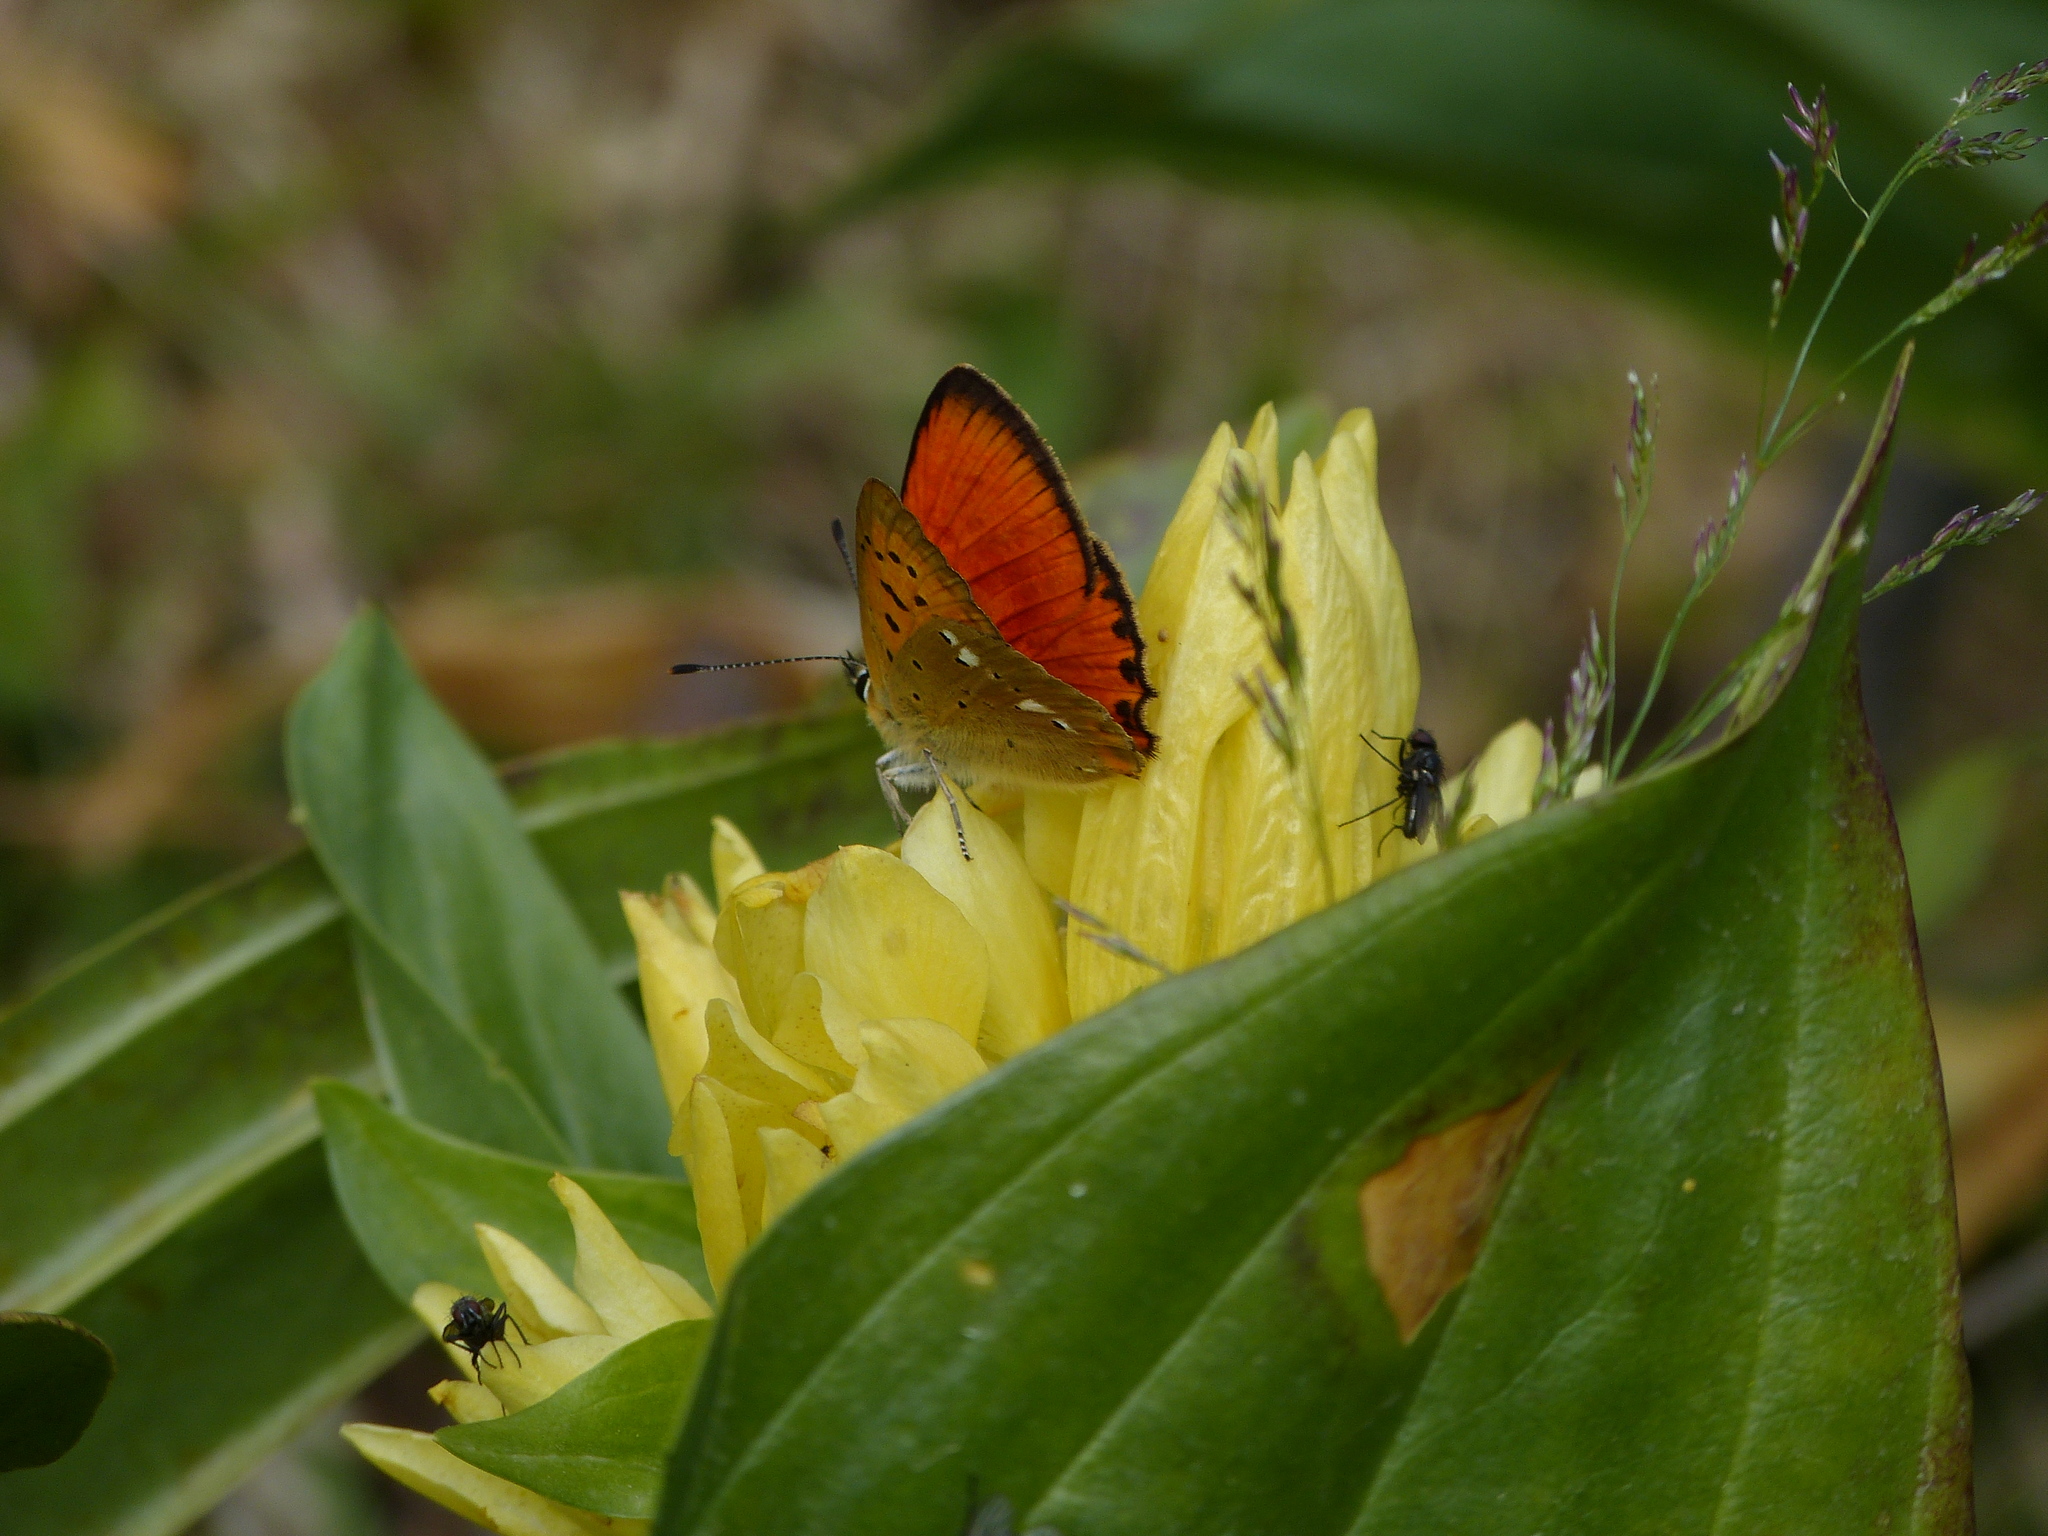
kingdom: Animalia
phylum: Arthropoda
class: Insecta
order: Lepidoptera
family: Lycaenidae
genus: Lycaena
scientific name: Lycaena virgaureae
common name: Scarce copper
